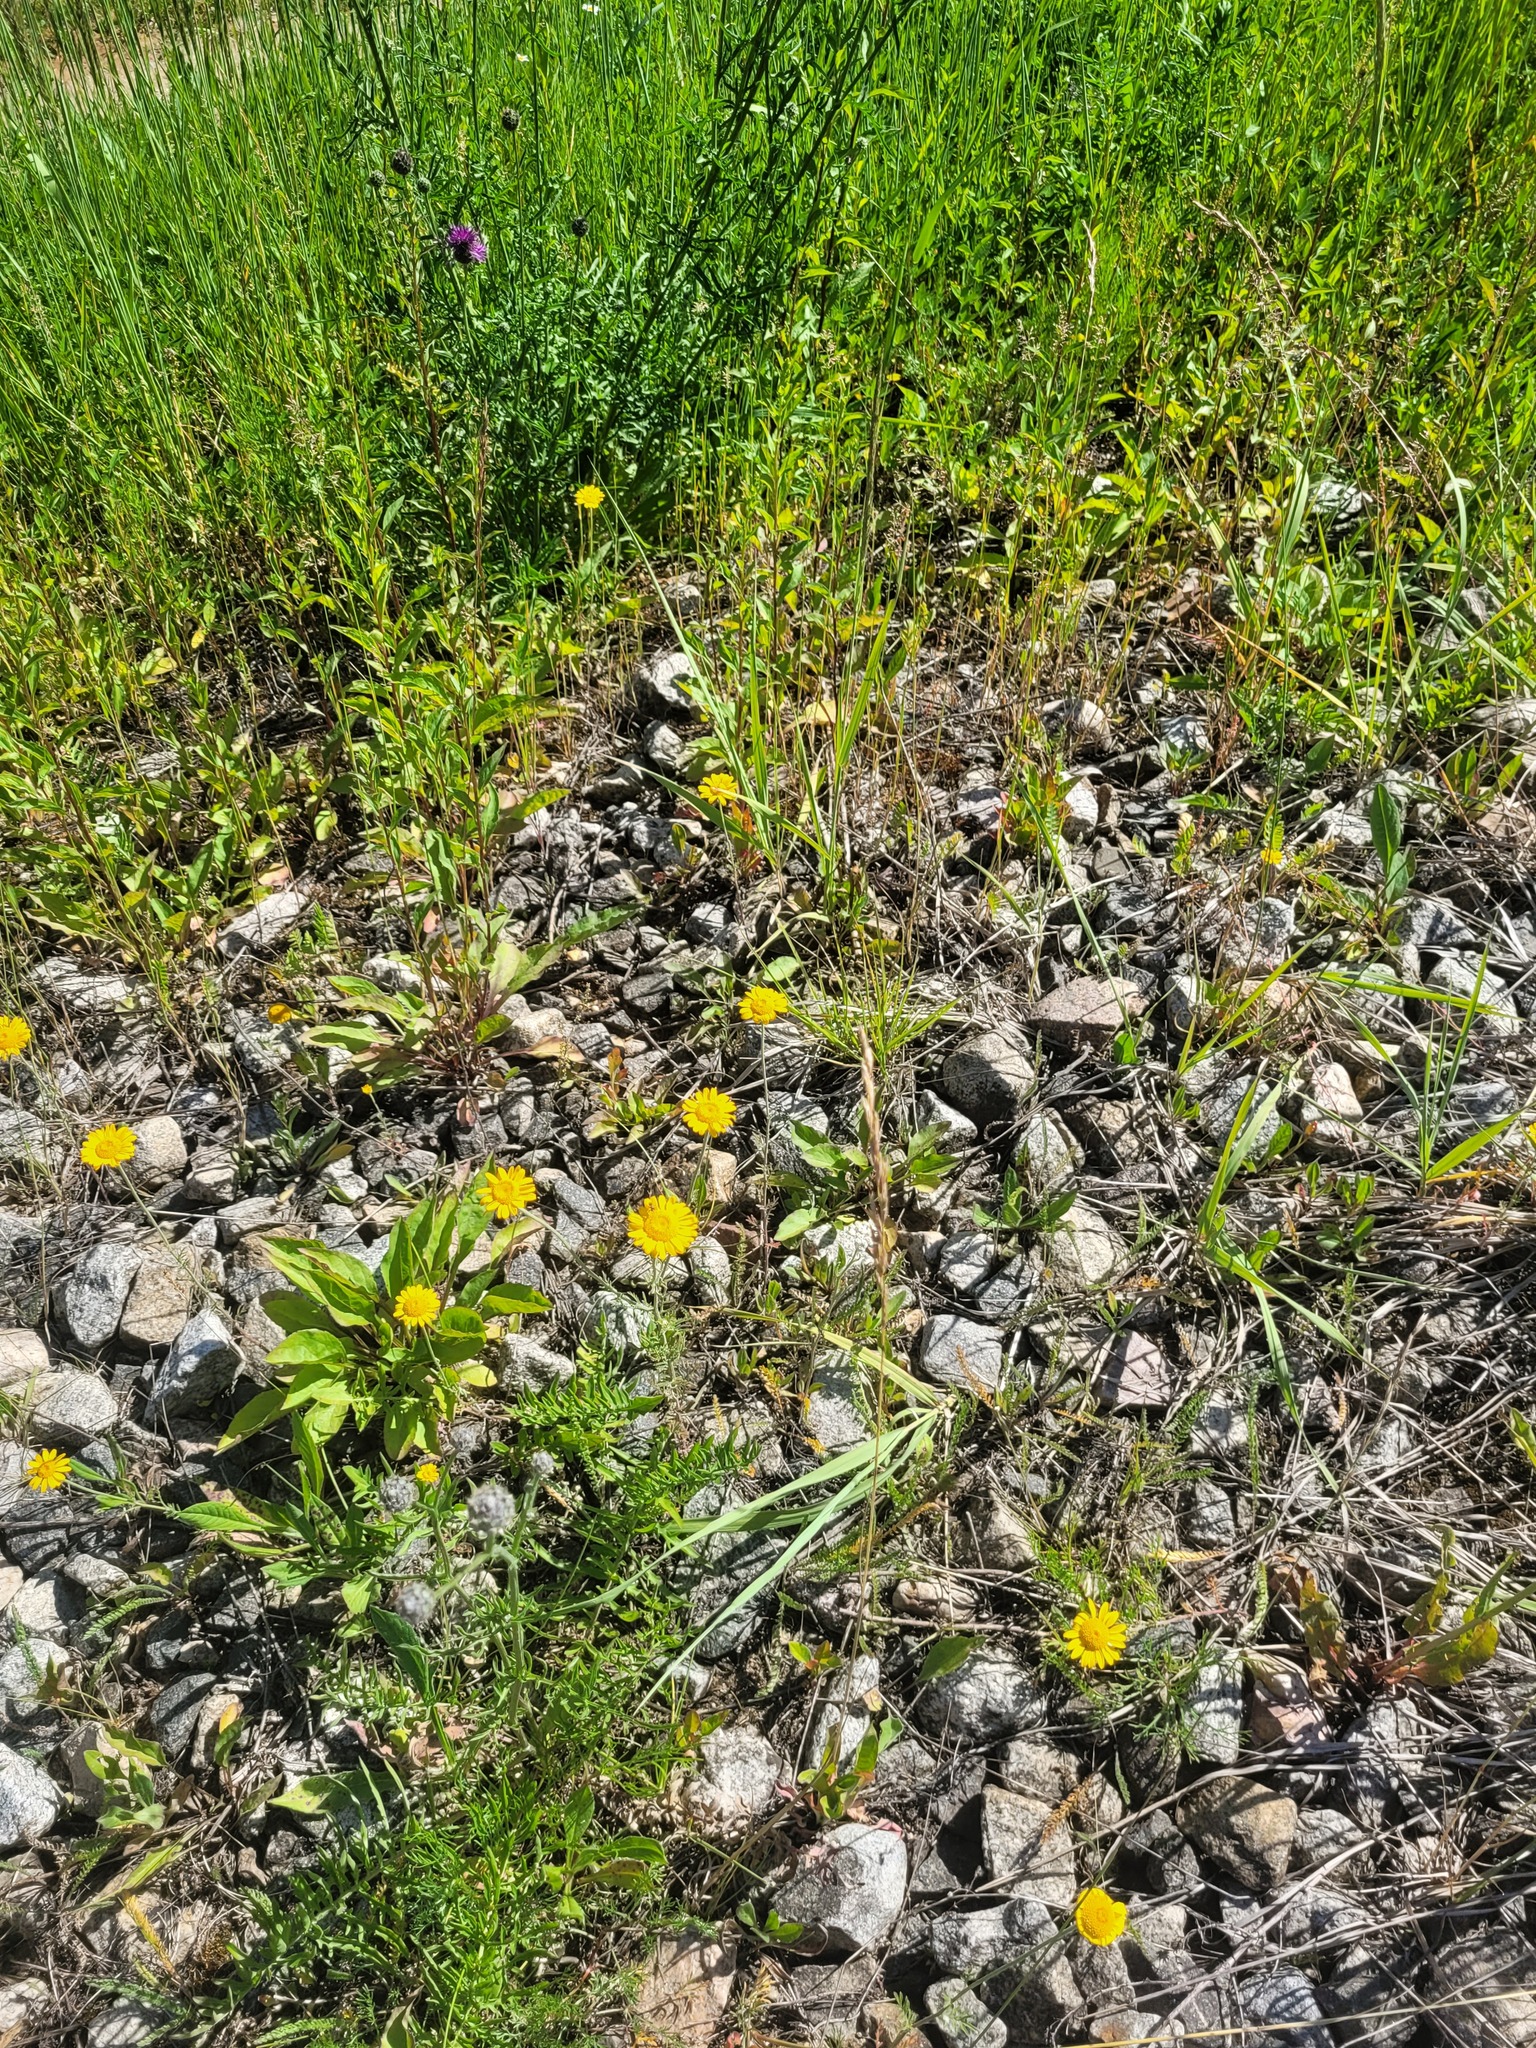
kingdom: Plantae
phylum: Tracheophyta
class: Magnoliopsida
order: Asterales
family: Asteraceae
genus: Cota
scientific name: Cota tinctoria
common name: Golden chamomile
